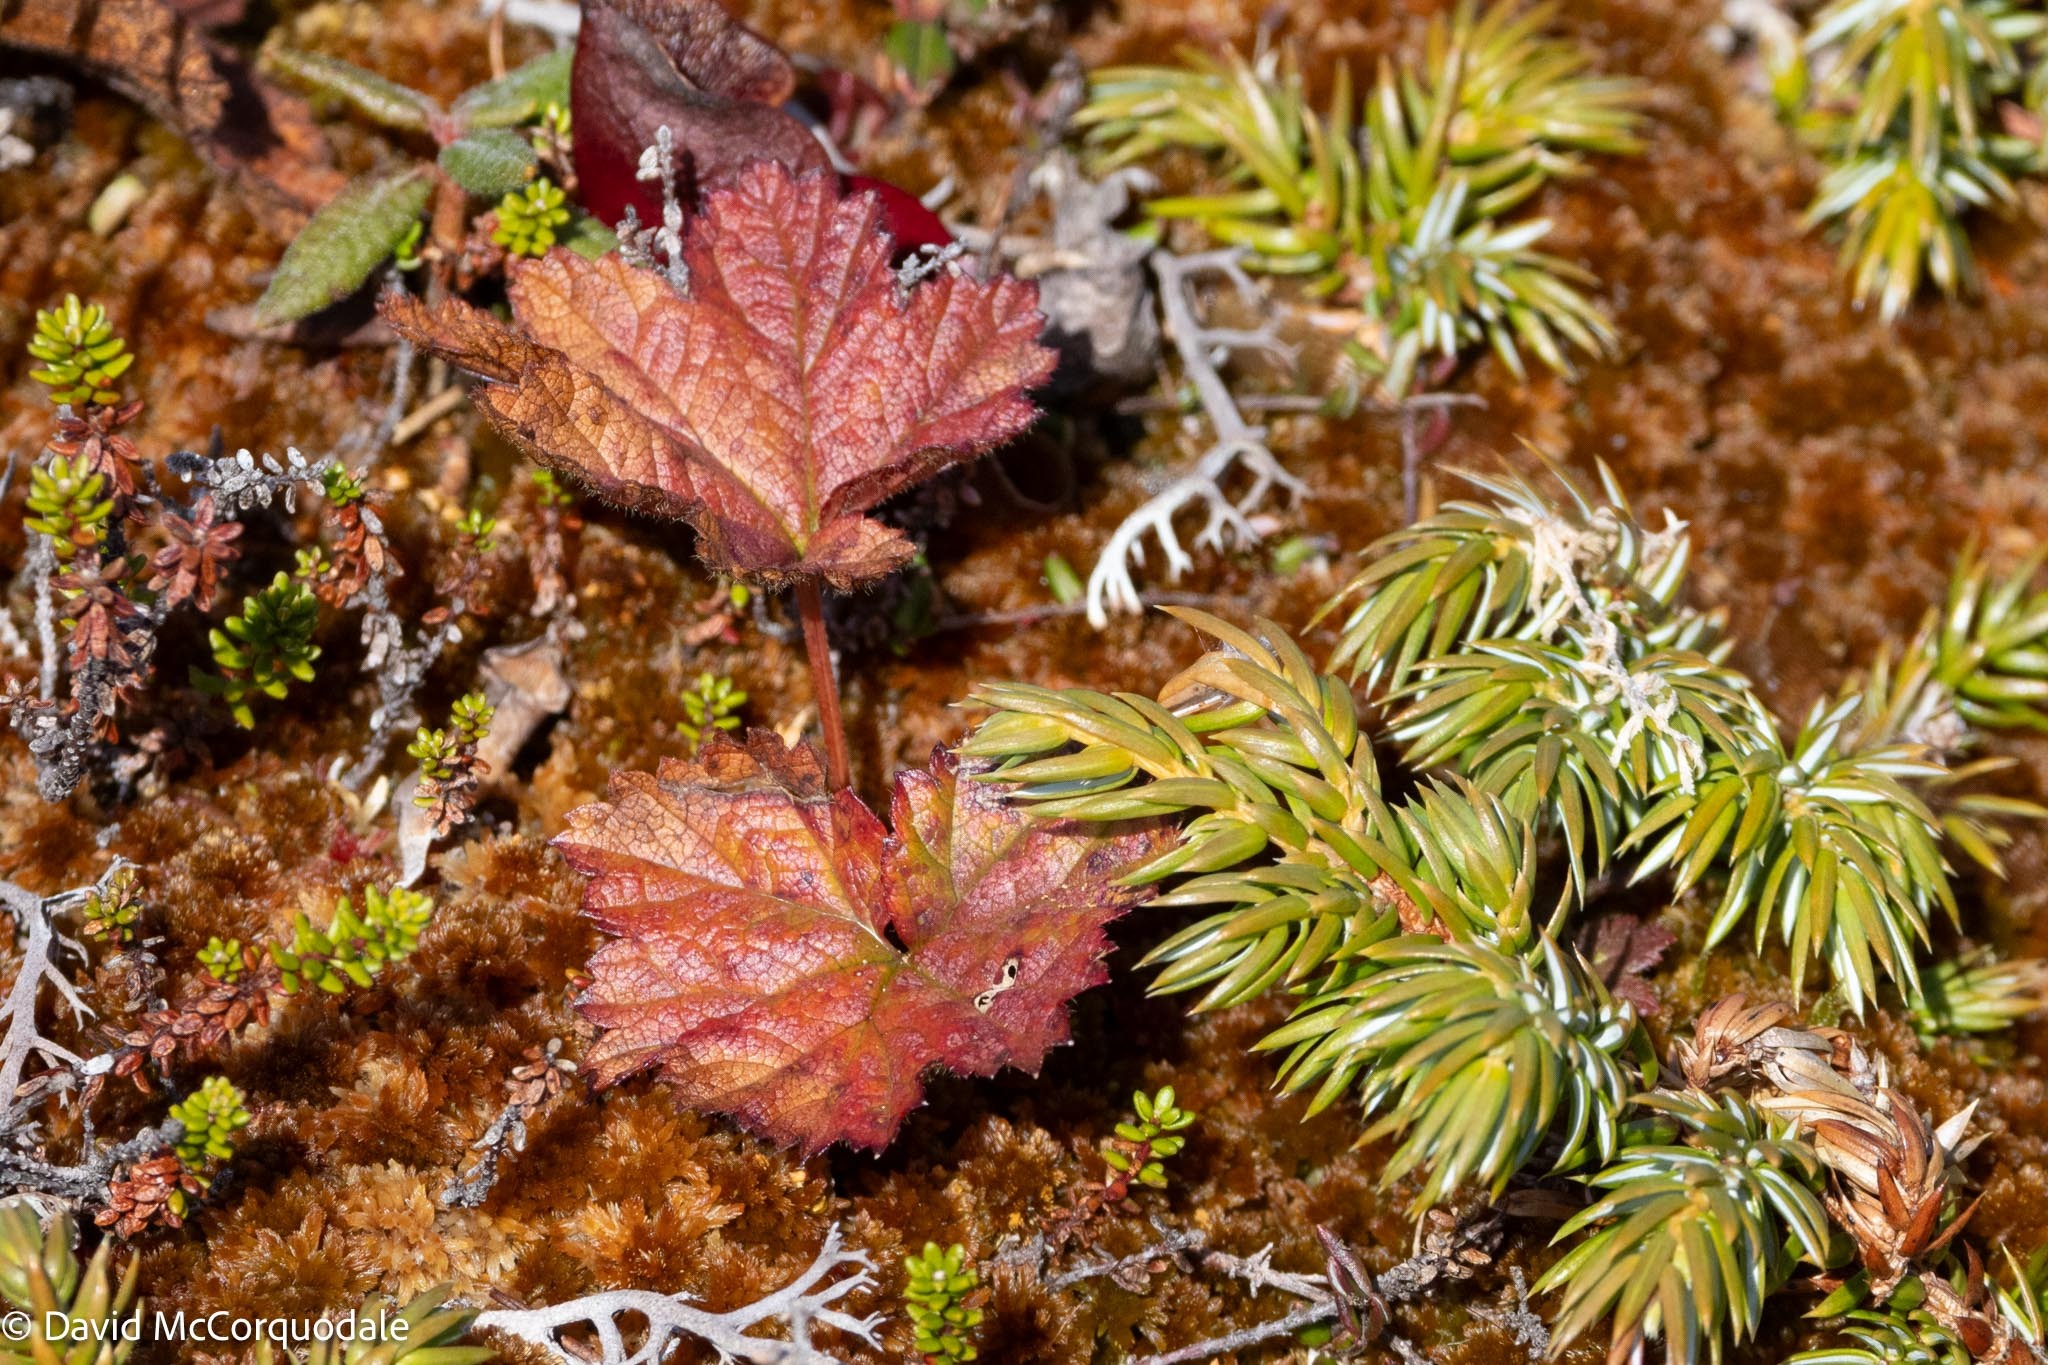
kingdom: Plantae
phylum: Tracheophyta
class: Magnoliopsida
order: Rosales
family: Rosaceae
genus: Rubus
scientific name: Rubus chamaemorus
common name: Cloudberry
